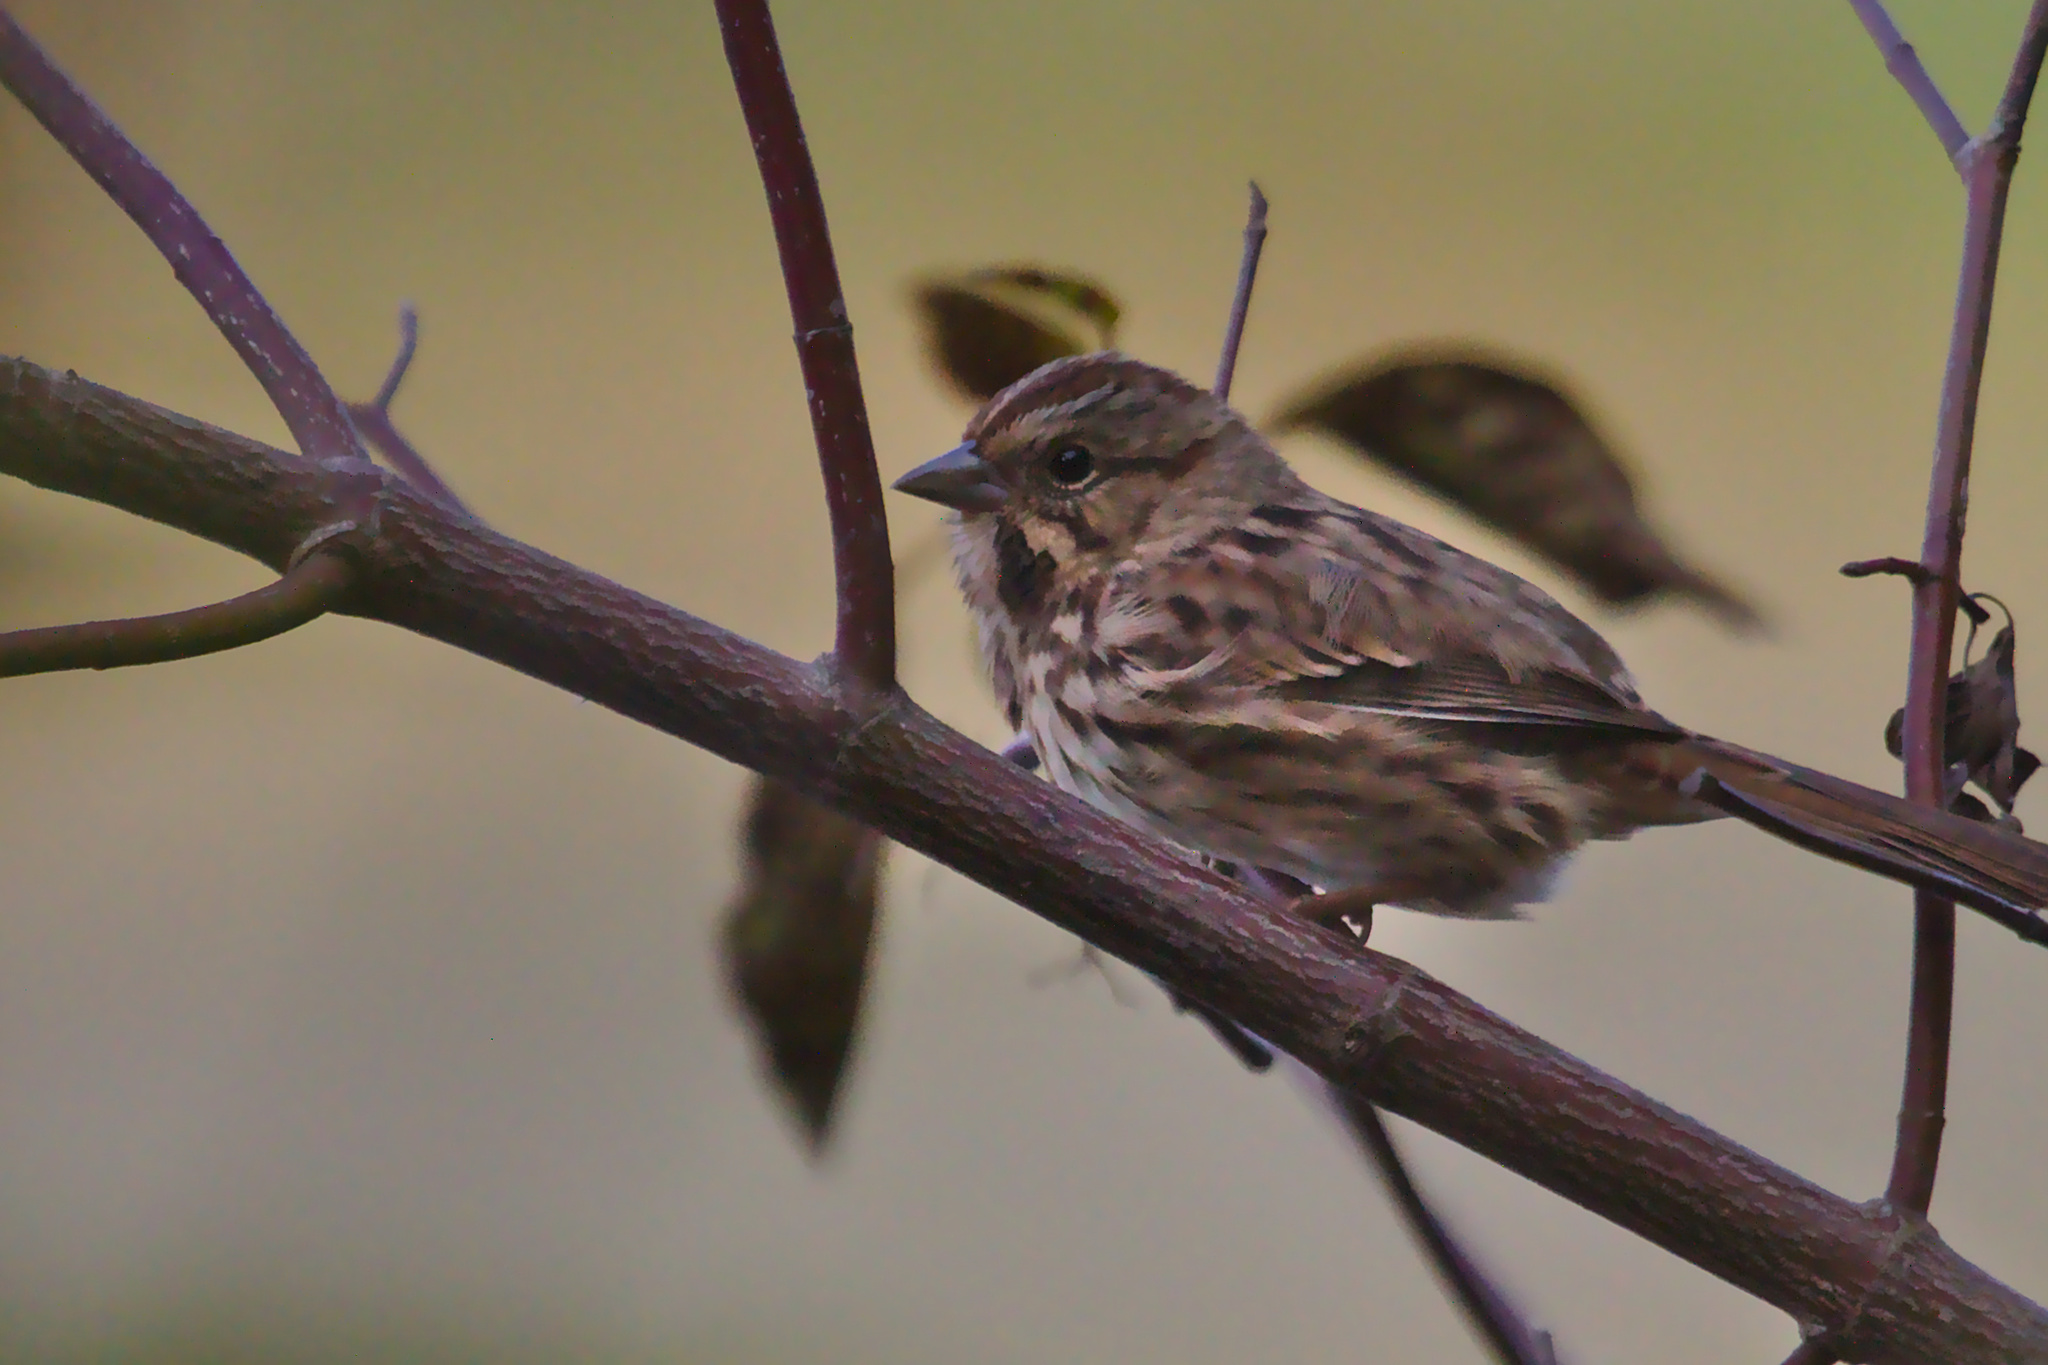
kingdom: Animalia
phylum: Chordata
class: Aves
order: Passeriformes
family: Passerellidae
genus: Melospiza
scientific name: Melospiza melodia
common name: Song sparrow
